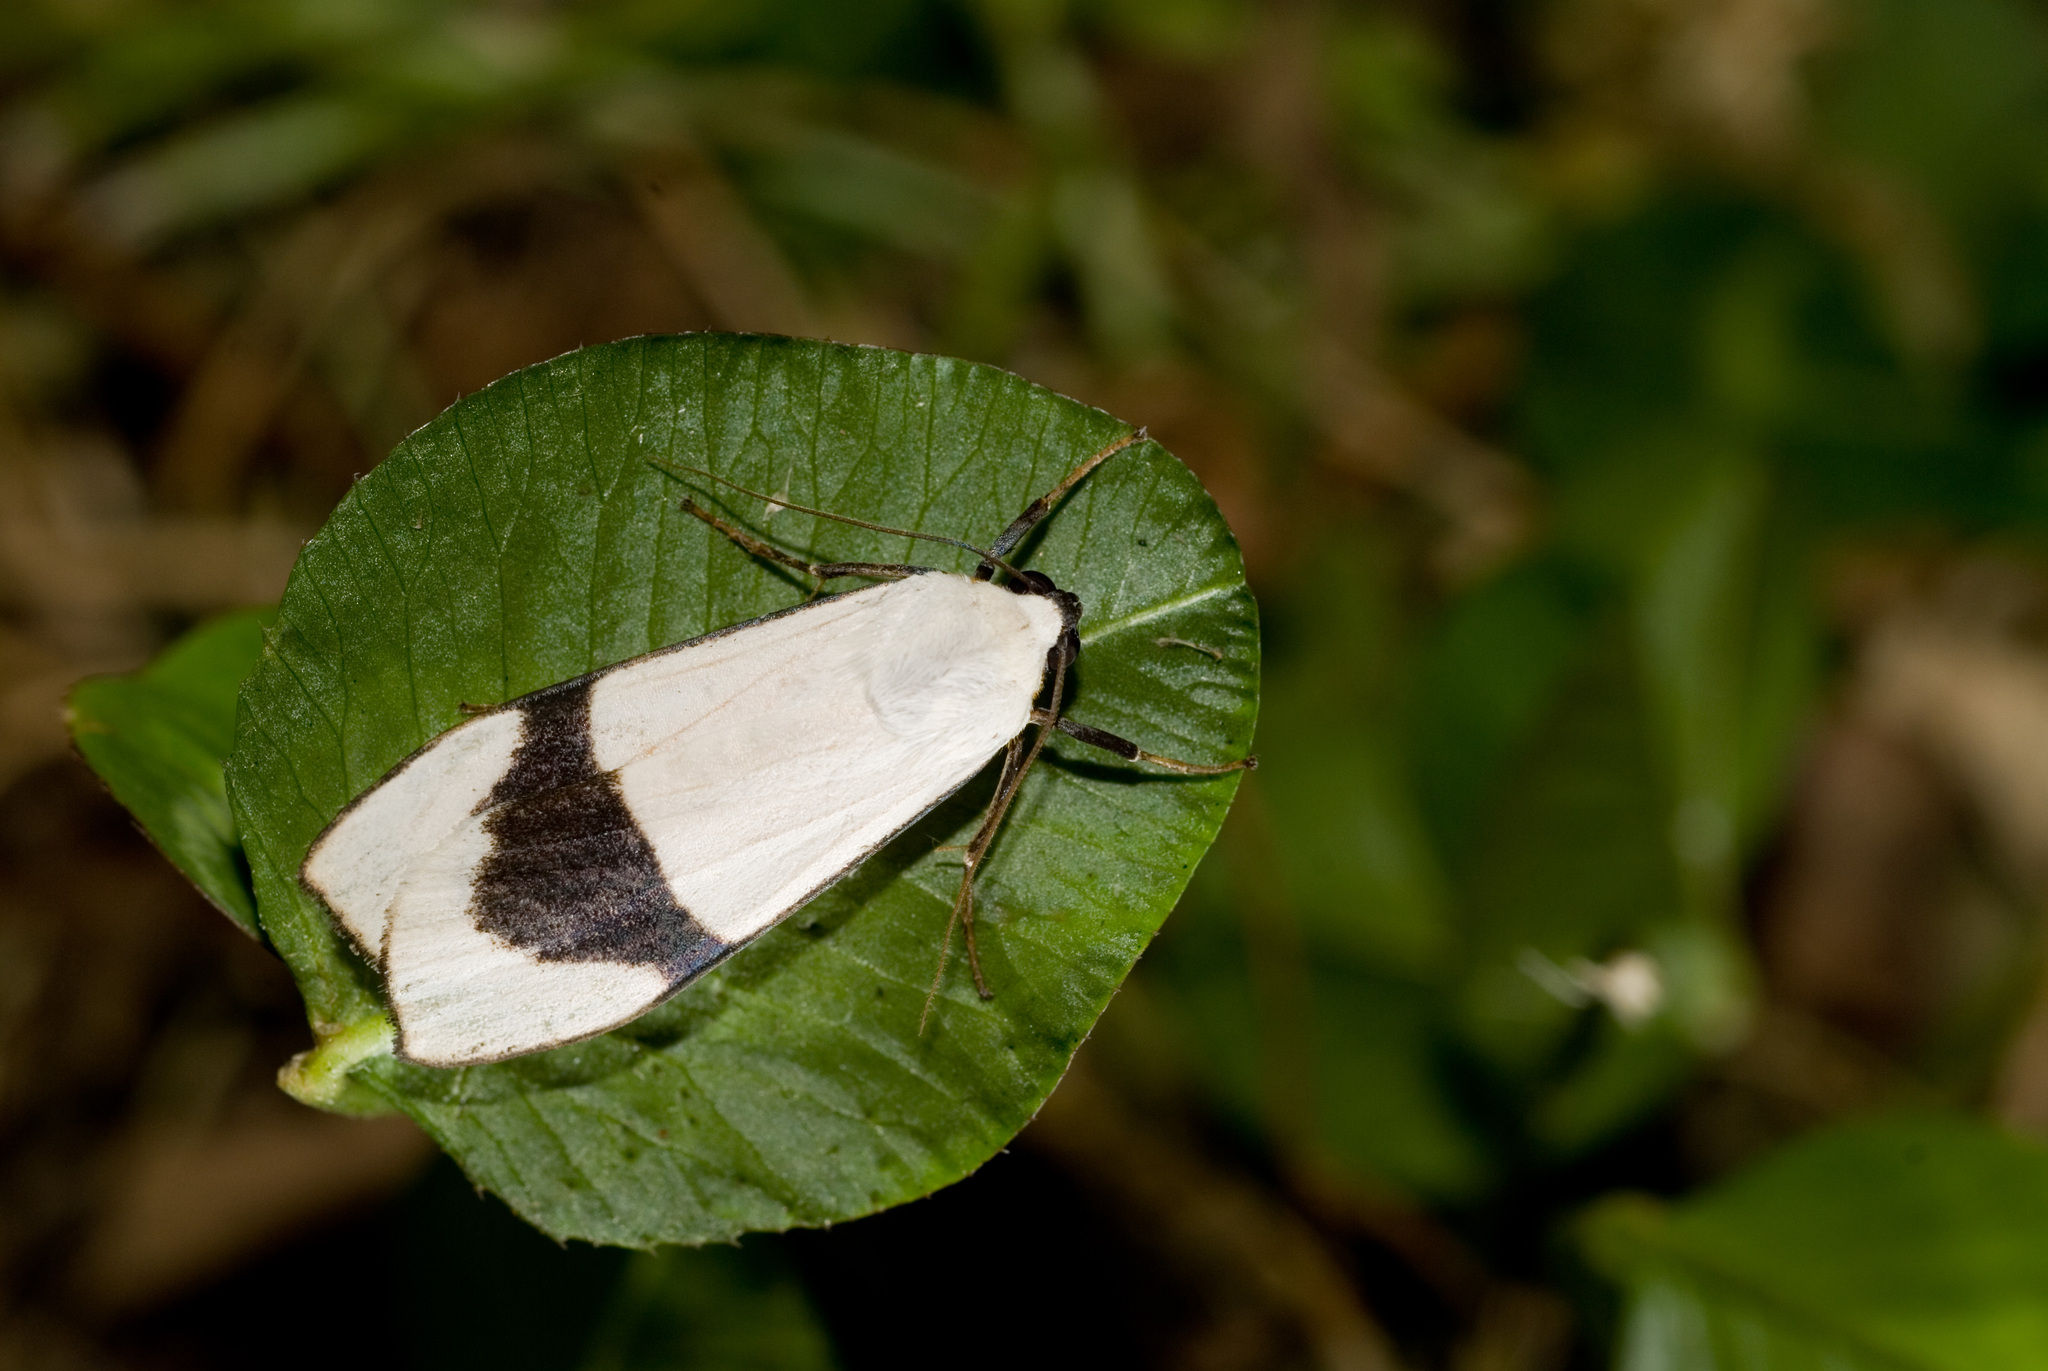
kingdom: Animalia
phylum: Arthropoda
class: Insecta
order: Lepidoptera
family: Erebidae
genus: Vamuna
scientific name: Vamuna alboluteola
